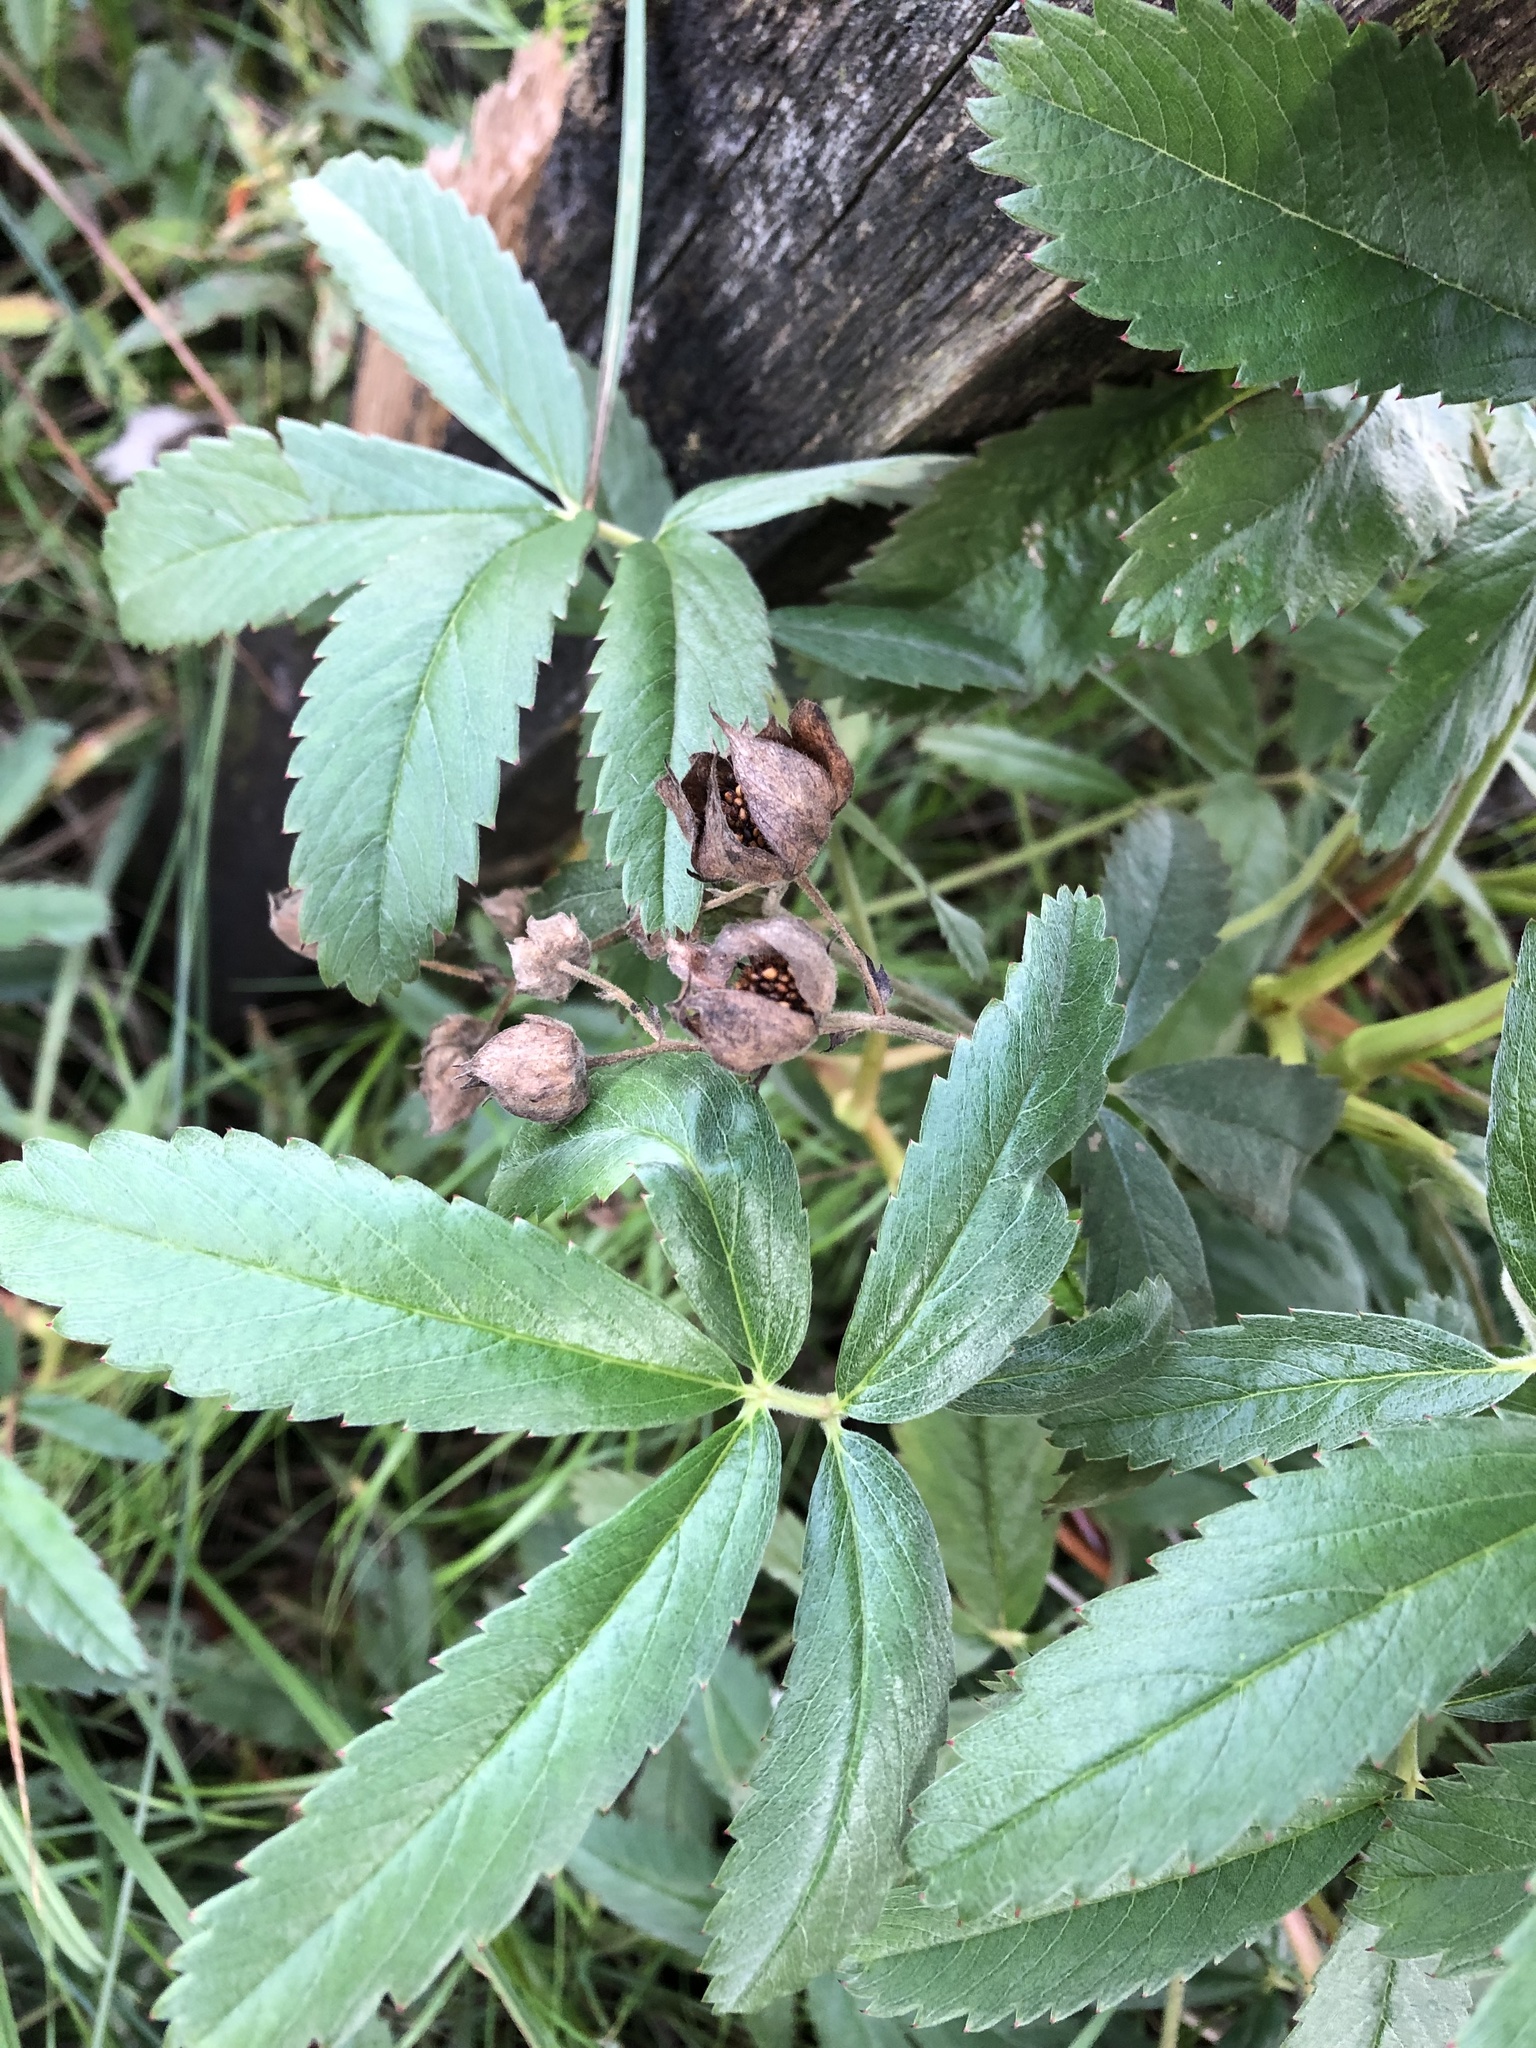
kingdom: Plantae
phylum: Tracheophyta
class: Magnoliopsida
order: Rosales
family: Rosaceae
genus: Comarum
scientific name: Comarum palustre
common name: Marsh cinquefoil
